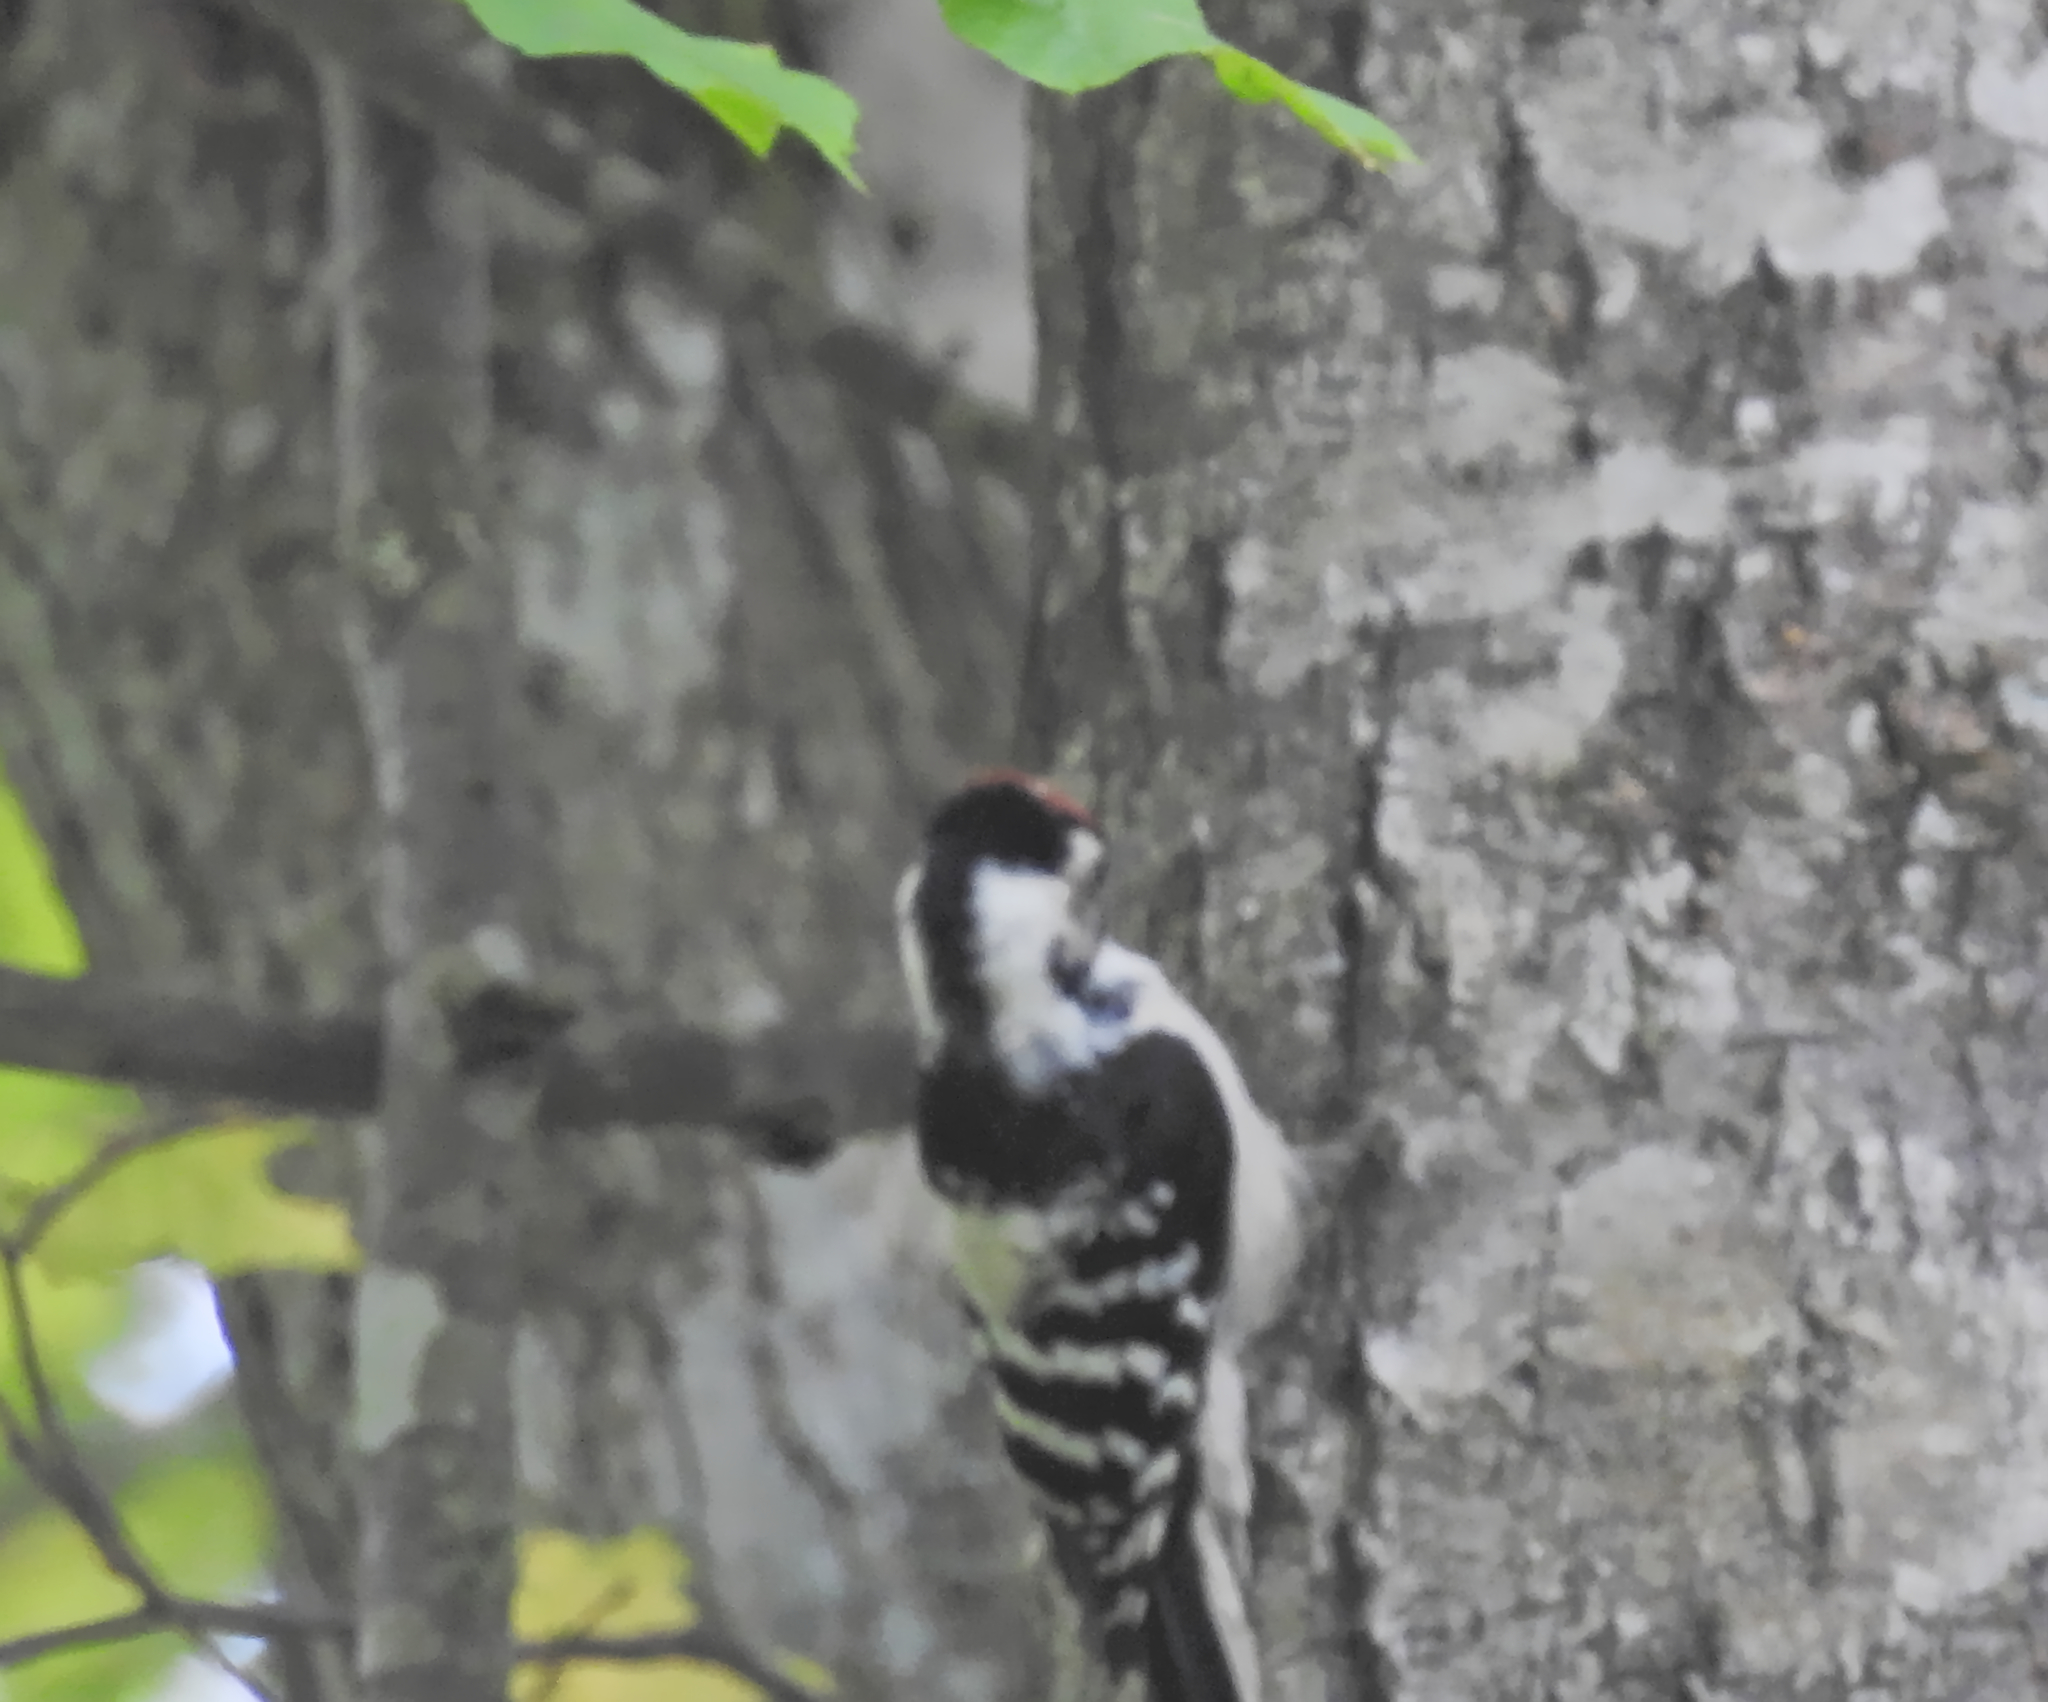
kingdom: Animalia
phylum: Chordata
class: Aves
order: Piciformes
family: Picidae
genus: Dryobates
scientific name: Dryobates minor
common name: Lesser spotted woodpecker
